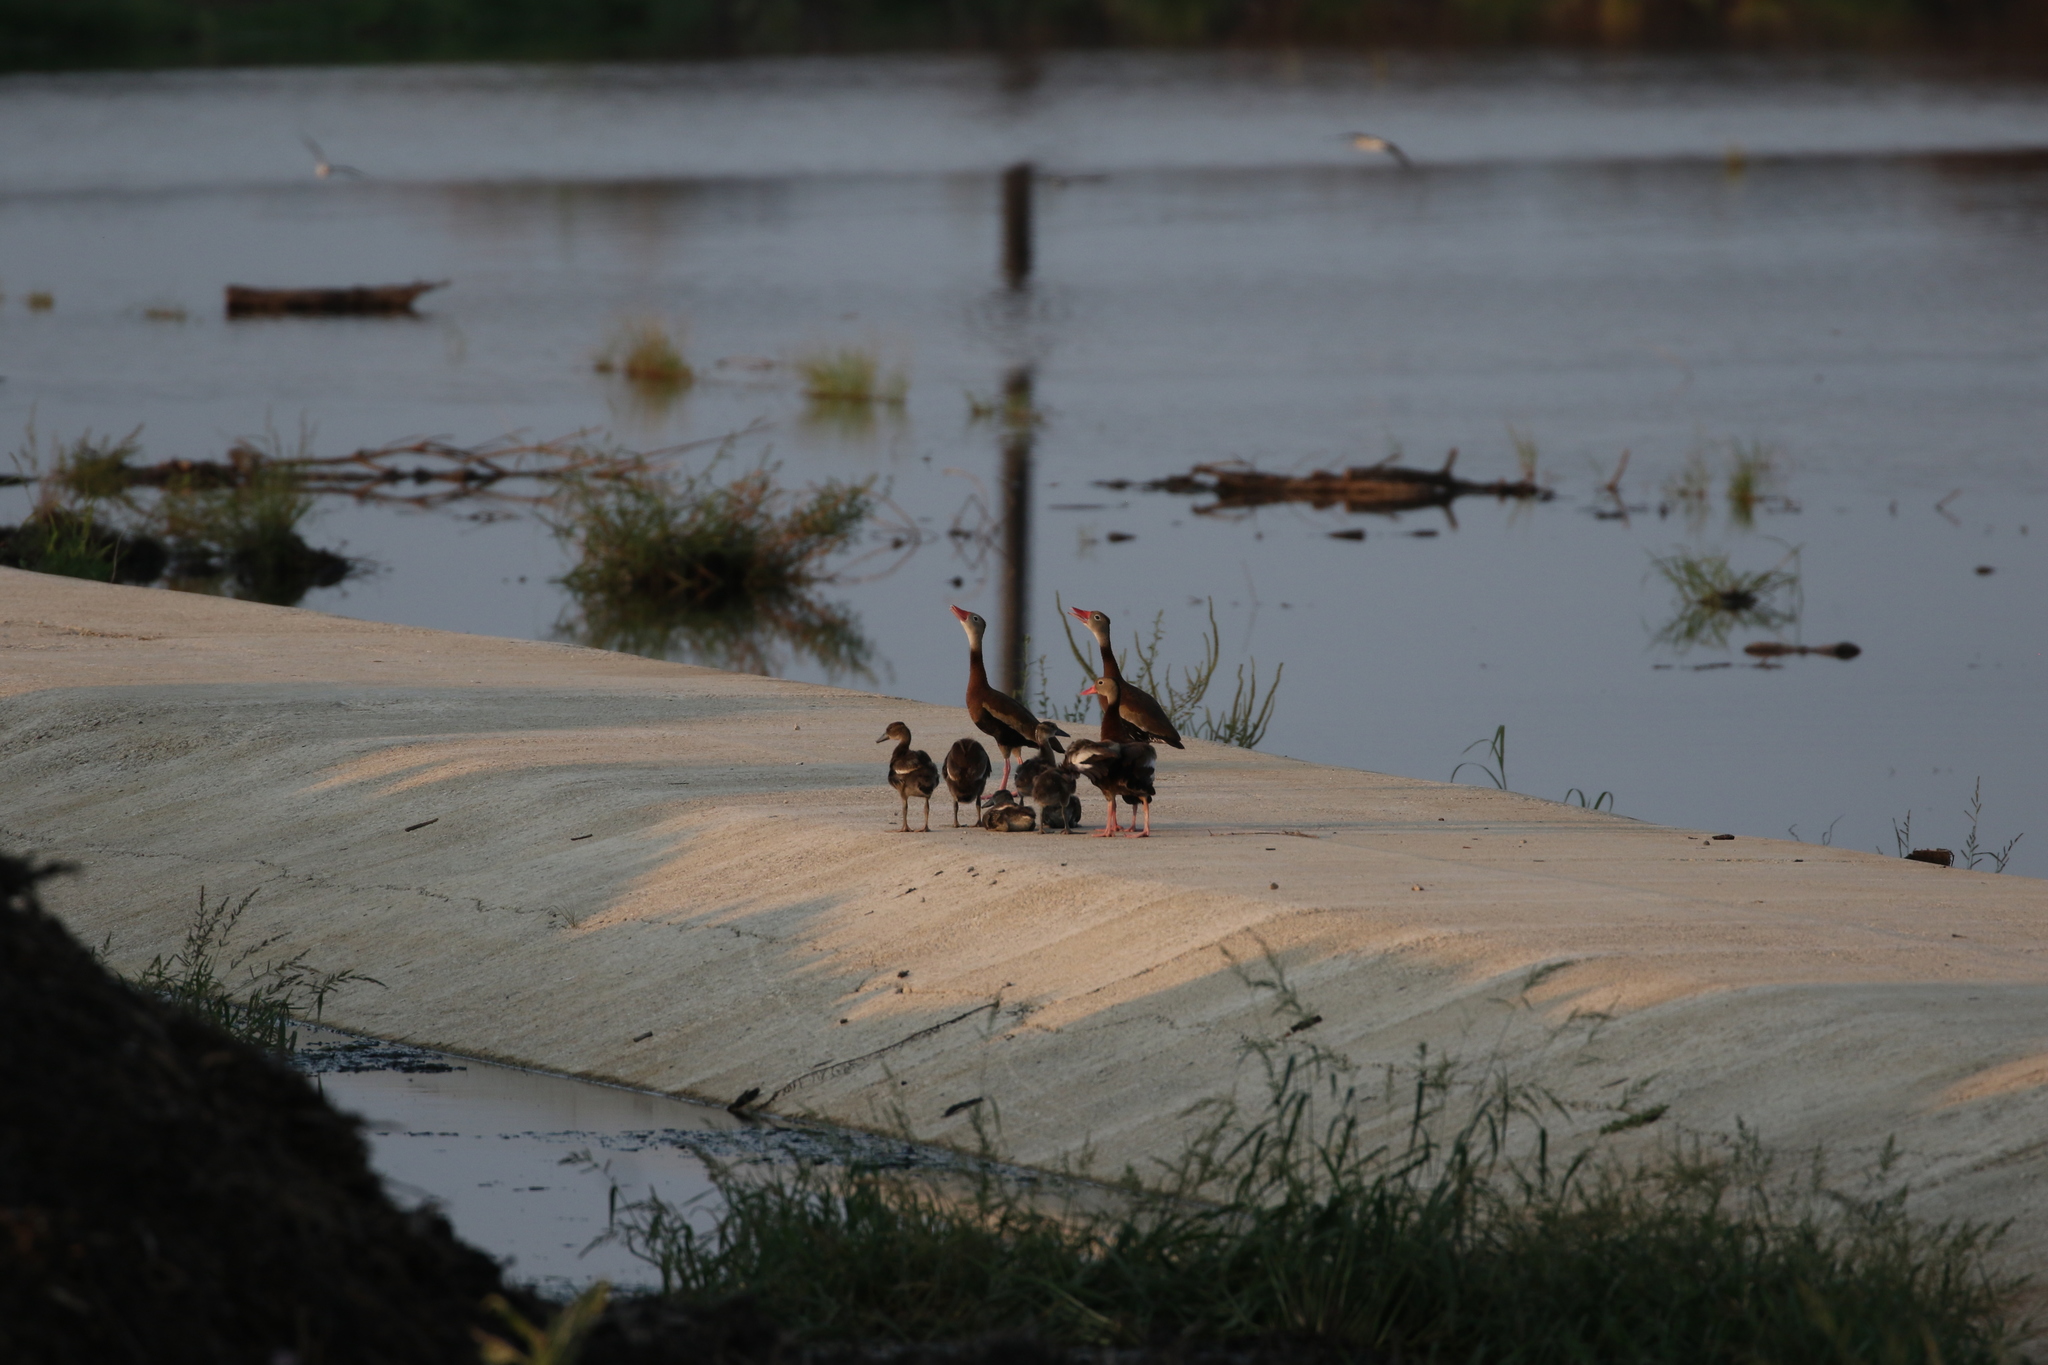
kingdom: Animalia
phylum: Chordata
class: Aves
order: Anseriformes
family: Anatidae
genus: Dendrocygna
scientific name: Dendrocygna autumnalis
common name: Black-bellied whistling duck
